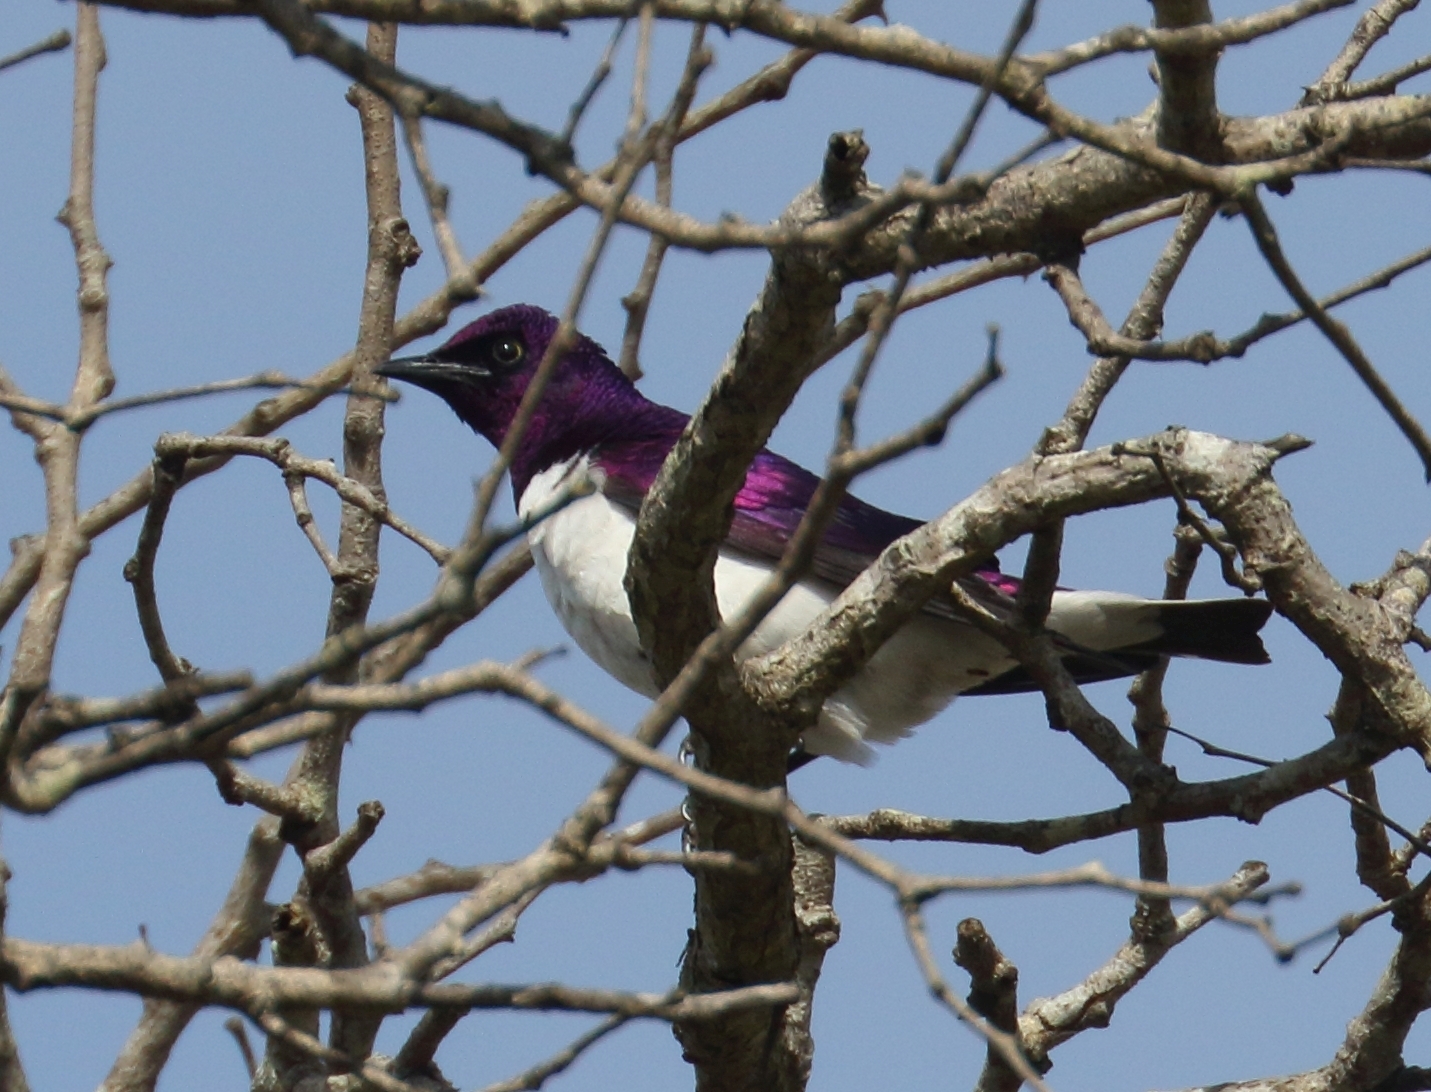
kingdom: Animalia
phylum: Chordata
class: Aves
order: Passeriformes
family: Sturnidae
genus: Cinnyricinclus
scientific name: Cinnyricinclus leucogaster
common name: Violet-backed starling
